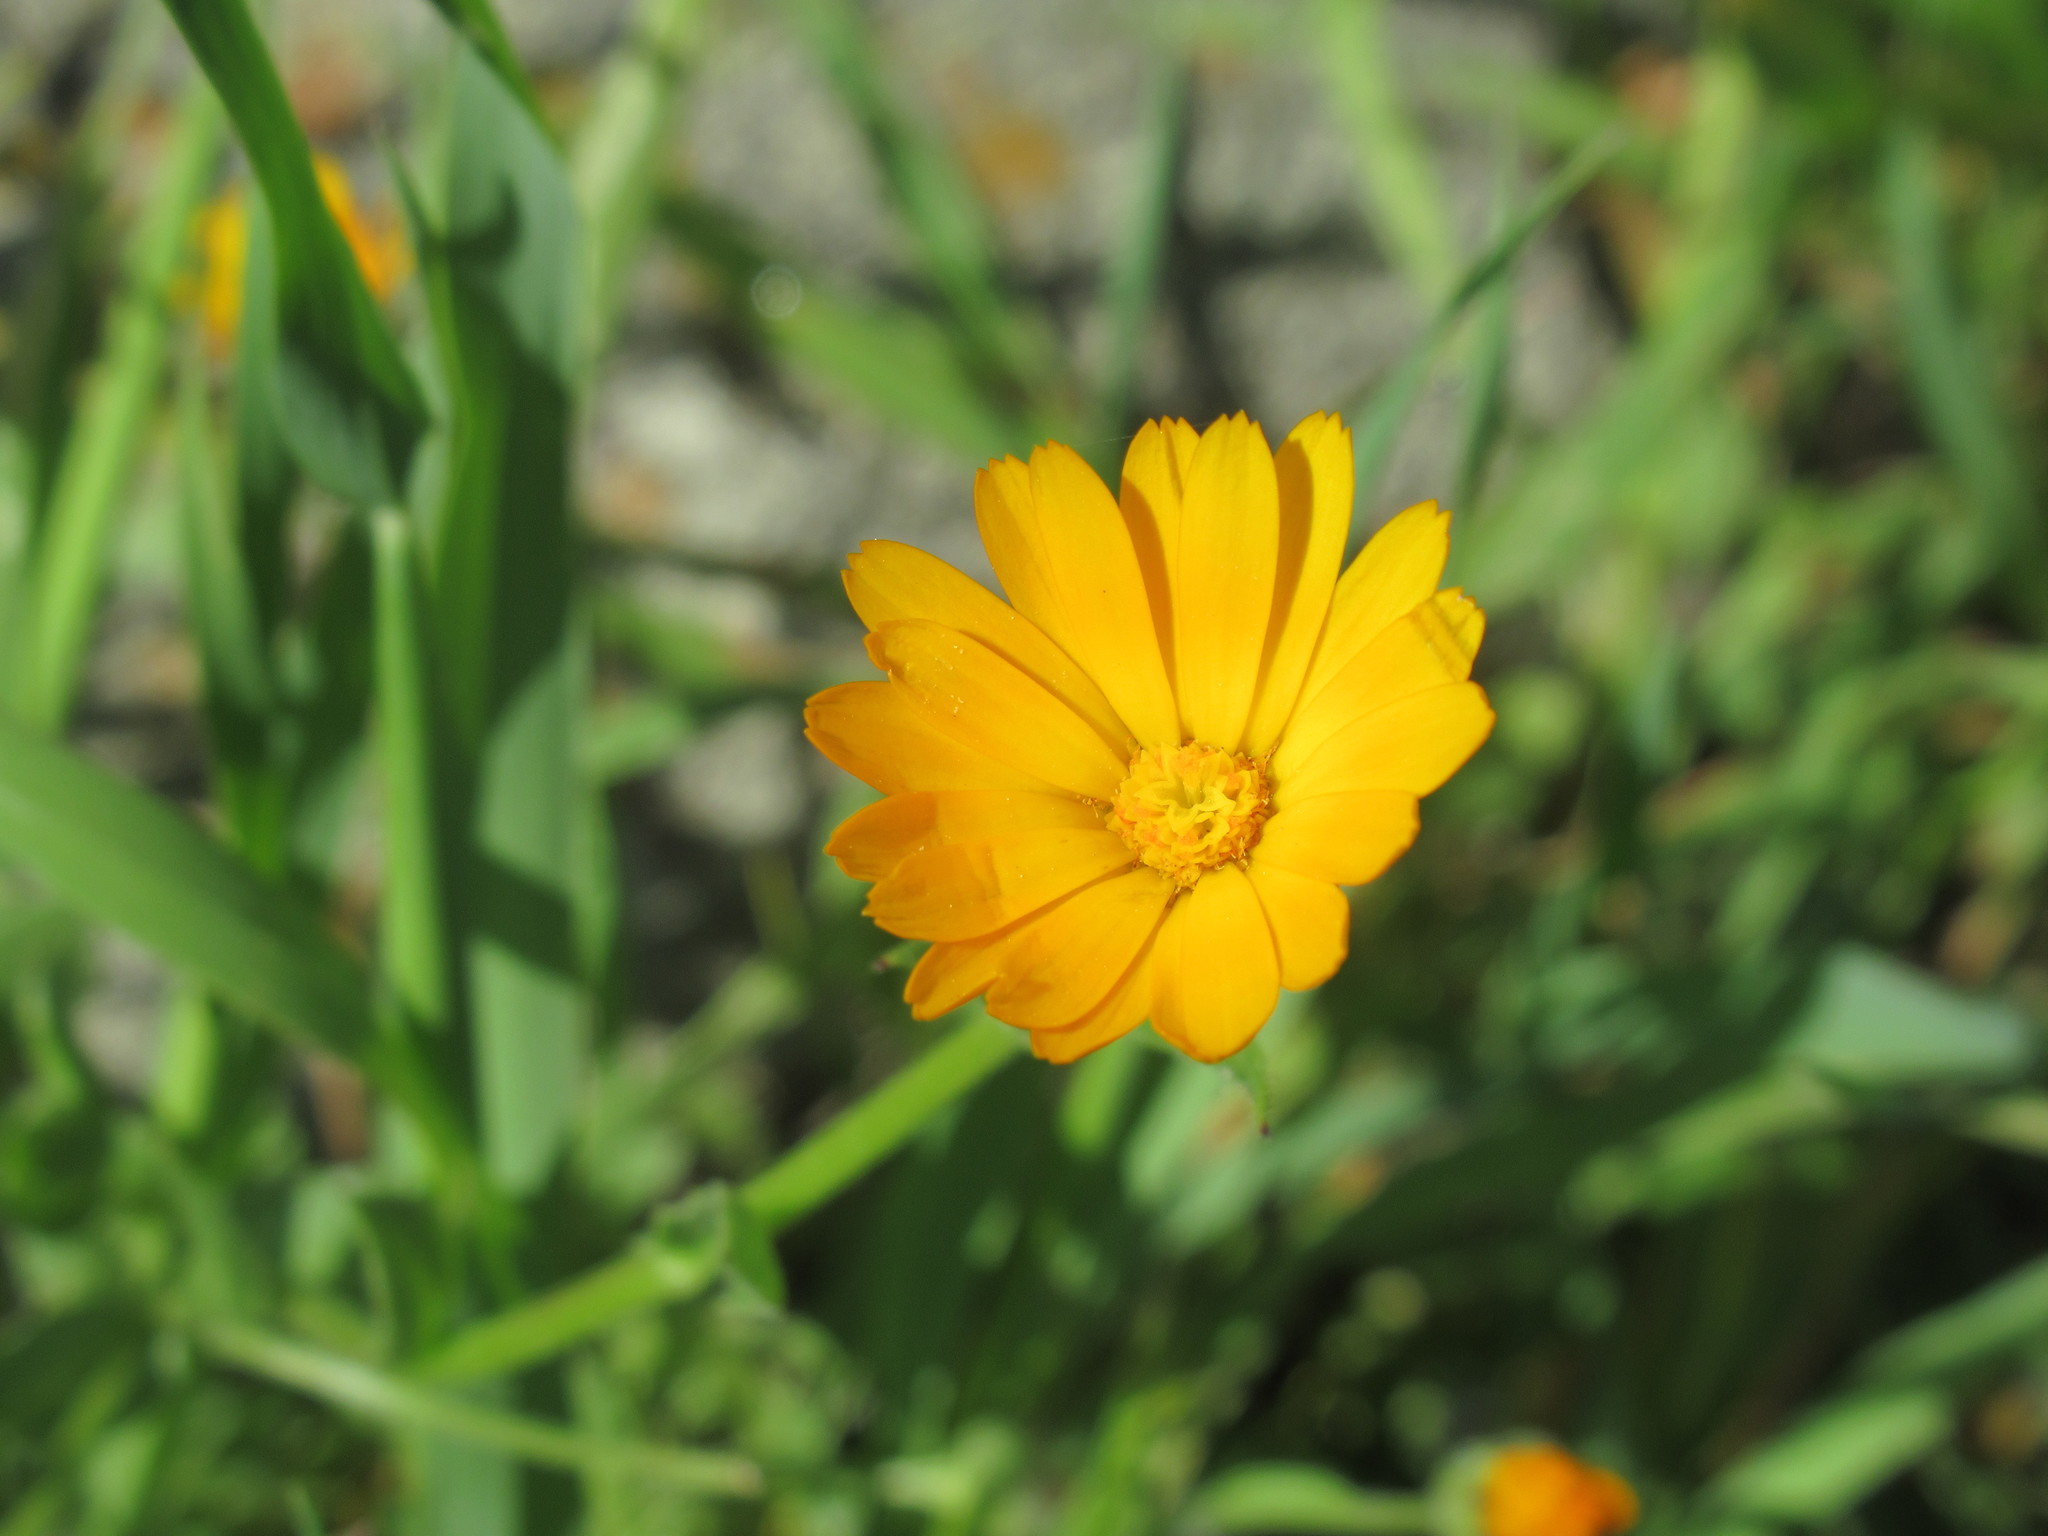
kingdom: Plantae
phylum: Tracheophyta
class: Magnoliopsida
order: Asterales
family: Asteraceae
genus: Calendula
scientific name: Calendula arvensis
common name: Field marigold
